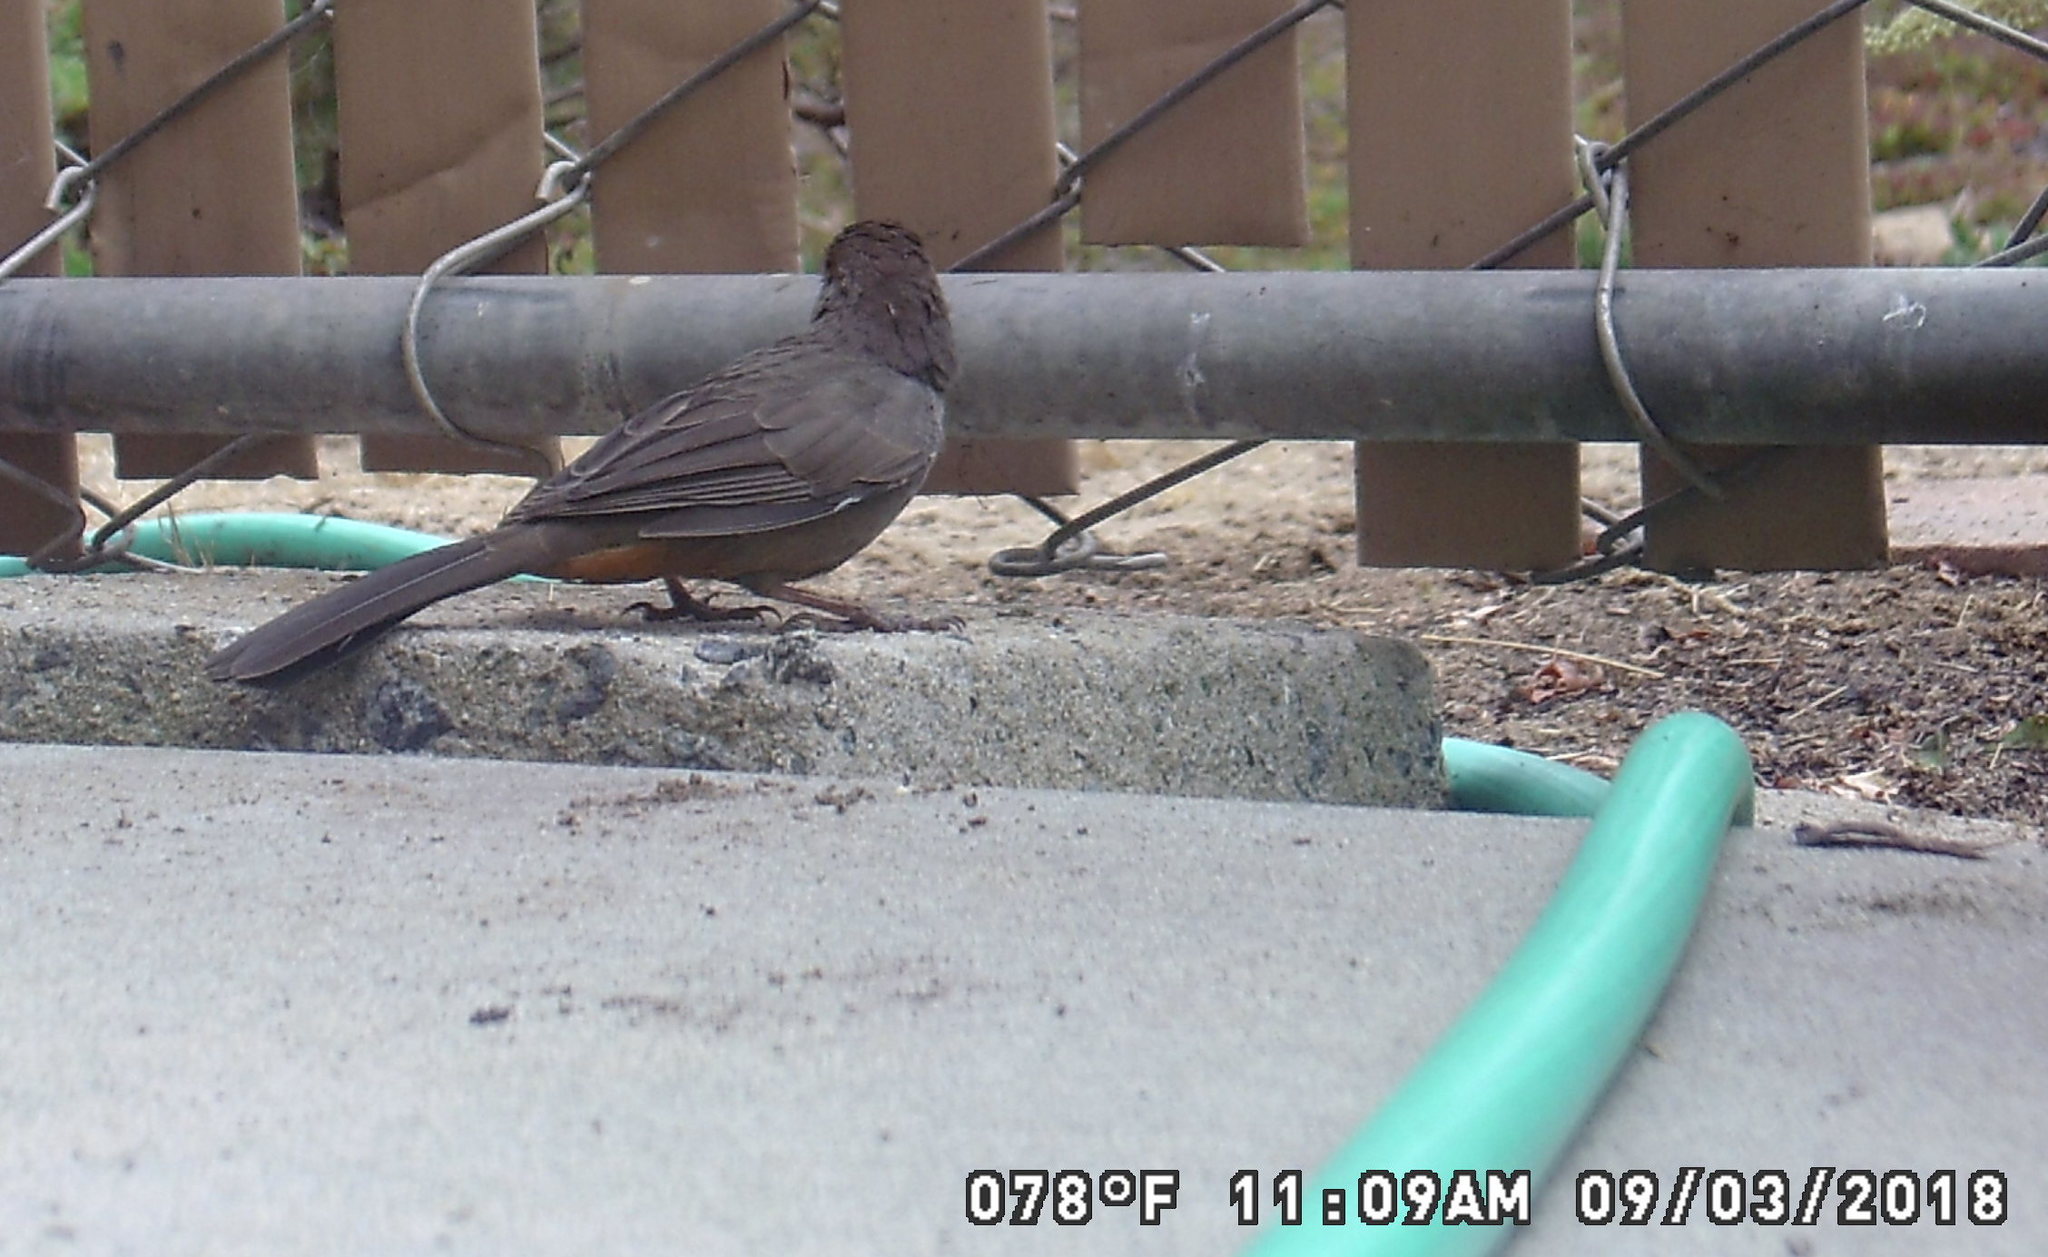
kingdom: Animalia
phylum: Chordata
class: Aves
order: Passeriformes
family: Passerellidae
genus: Melozone
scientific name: Melozone crissalis
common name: California towhee
